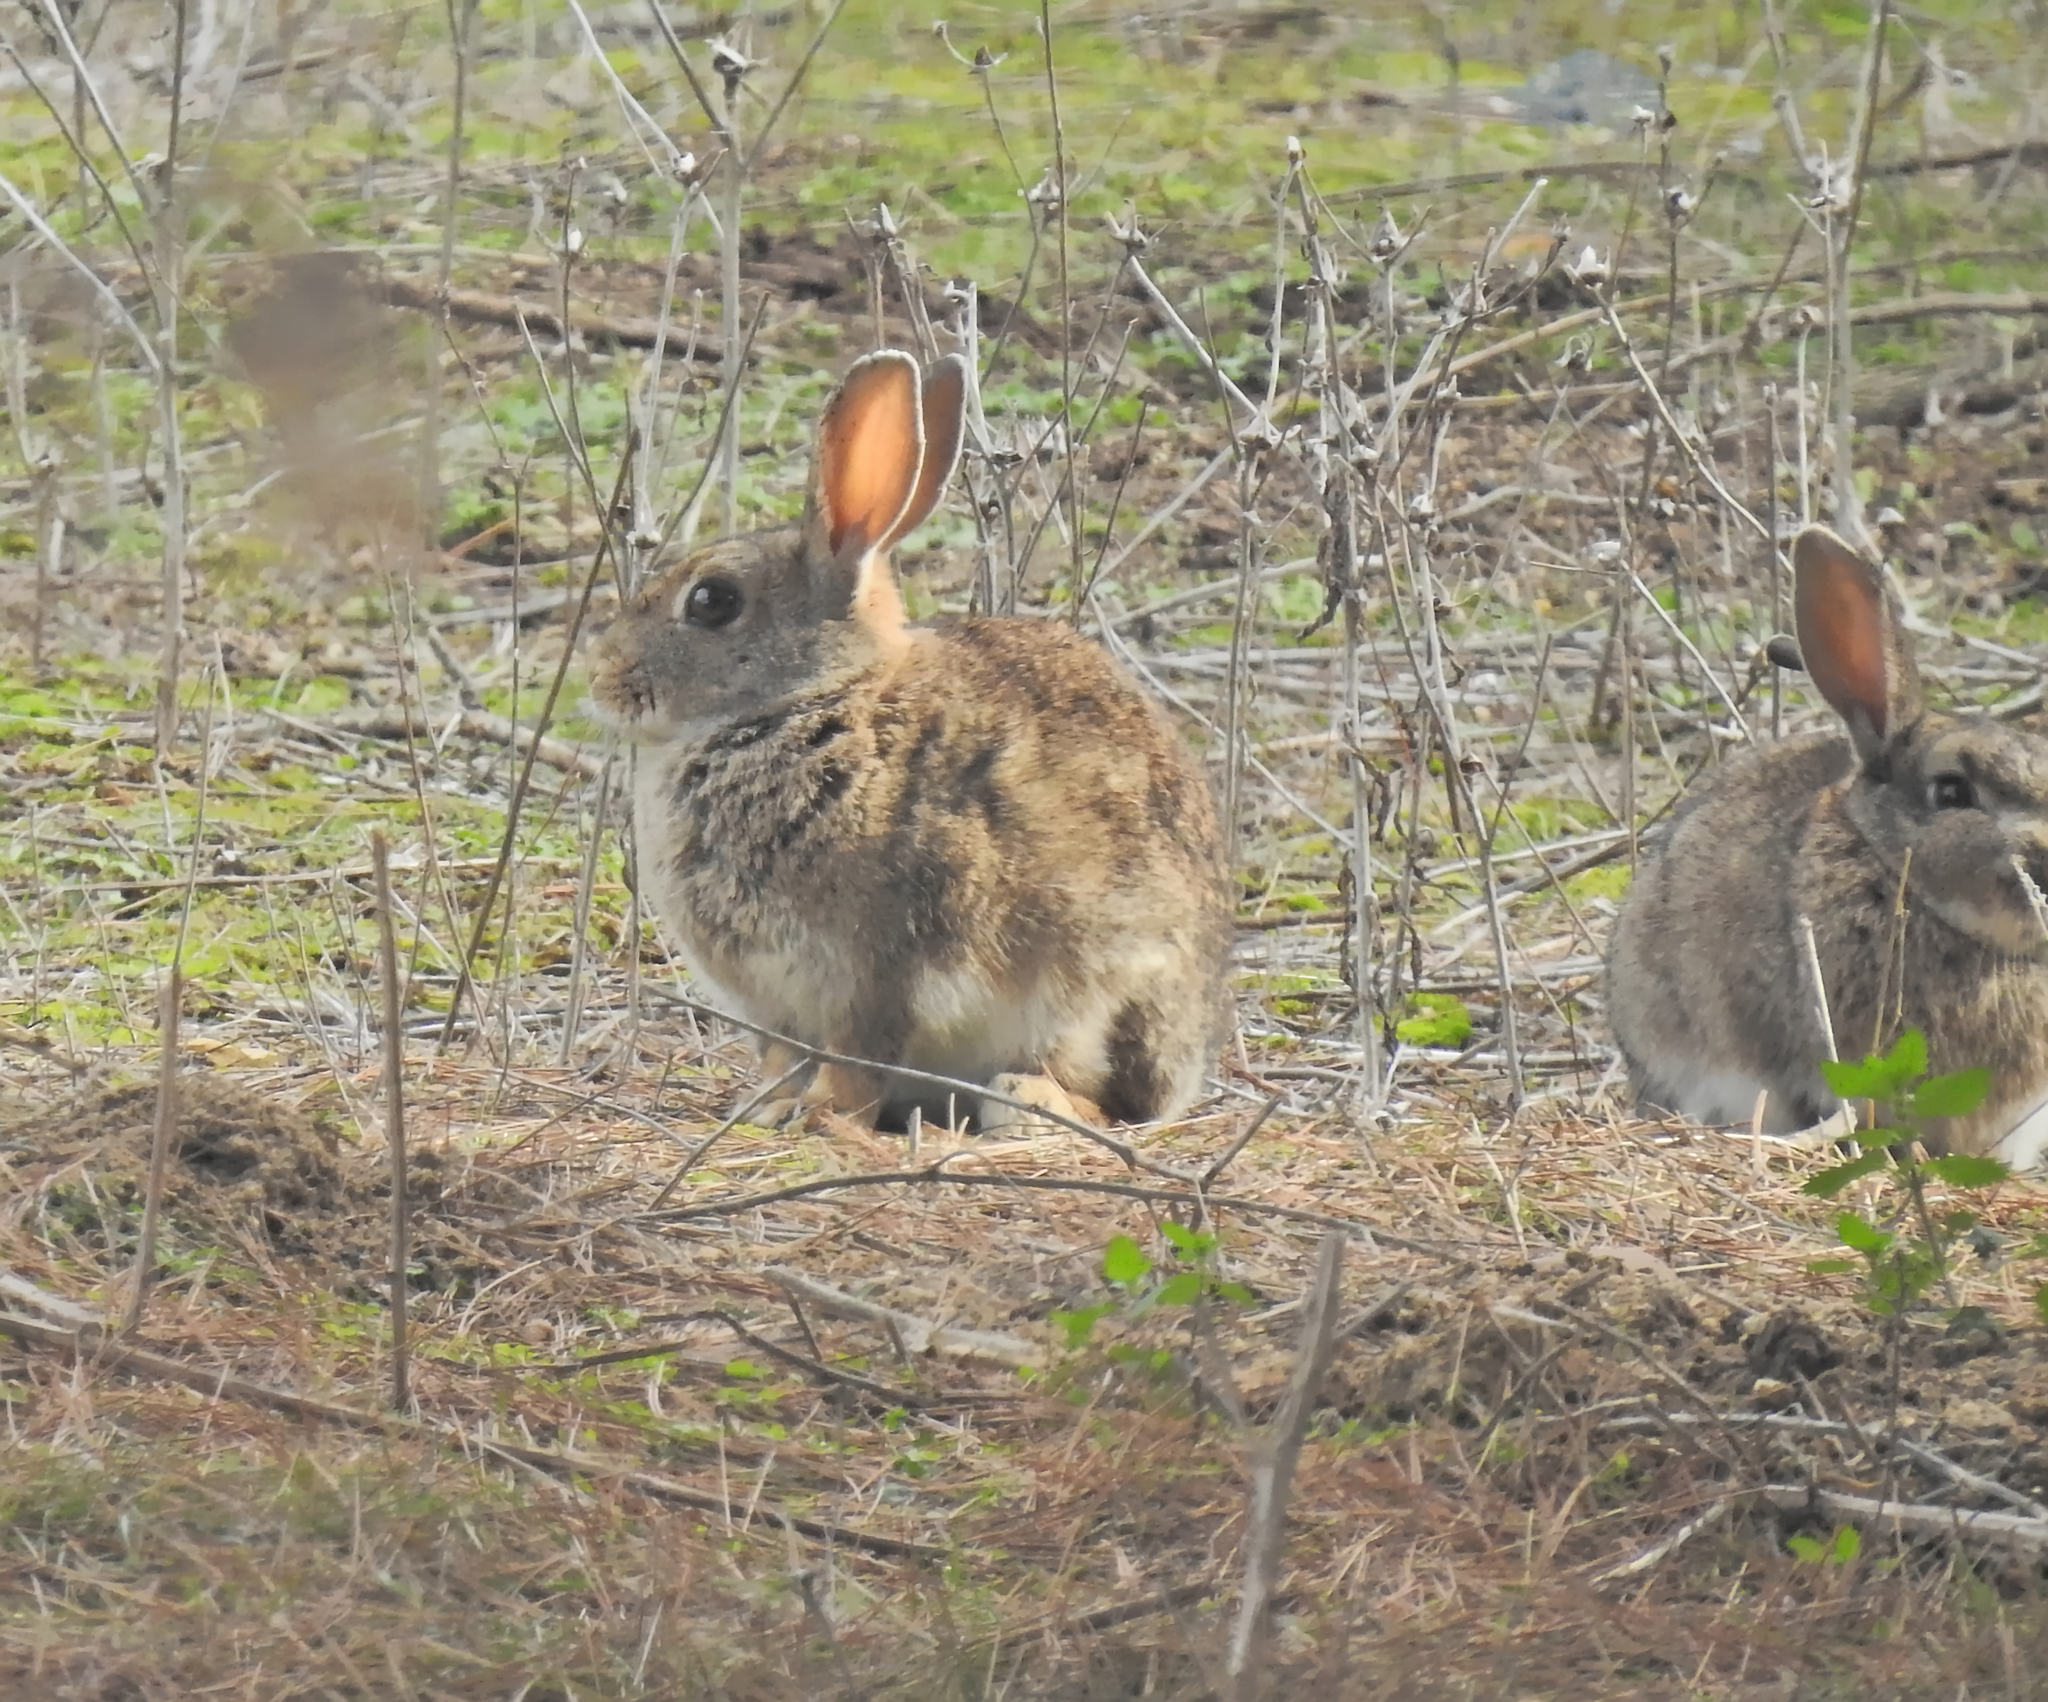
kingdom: Animalia
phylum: Chordata
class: Mammalia
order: Lagomorpha
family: Leporidae
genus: Oryctolagus
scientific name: Oryctolagus cuniculus
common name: European rabbit
